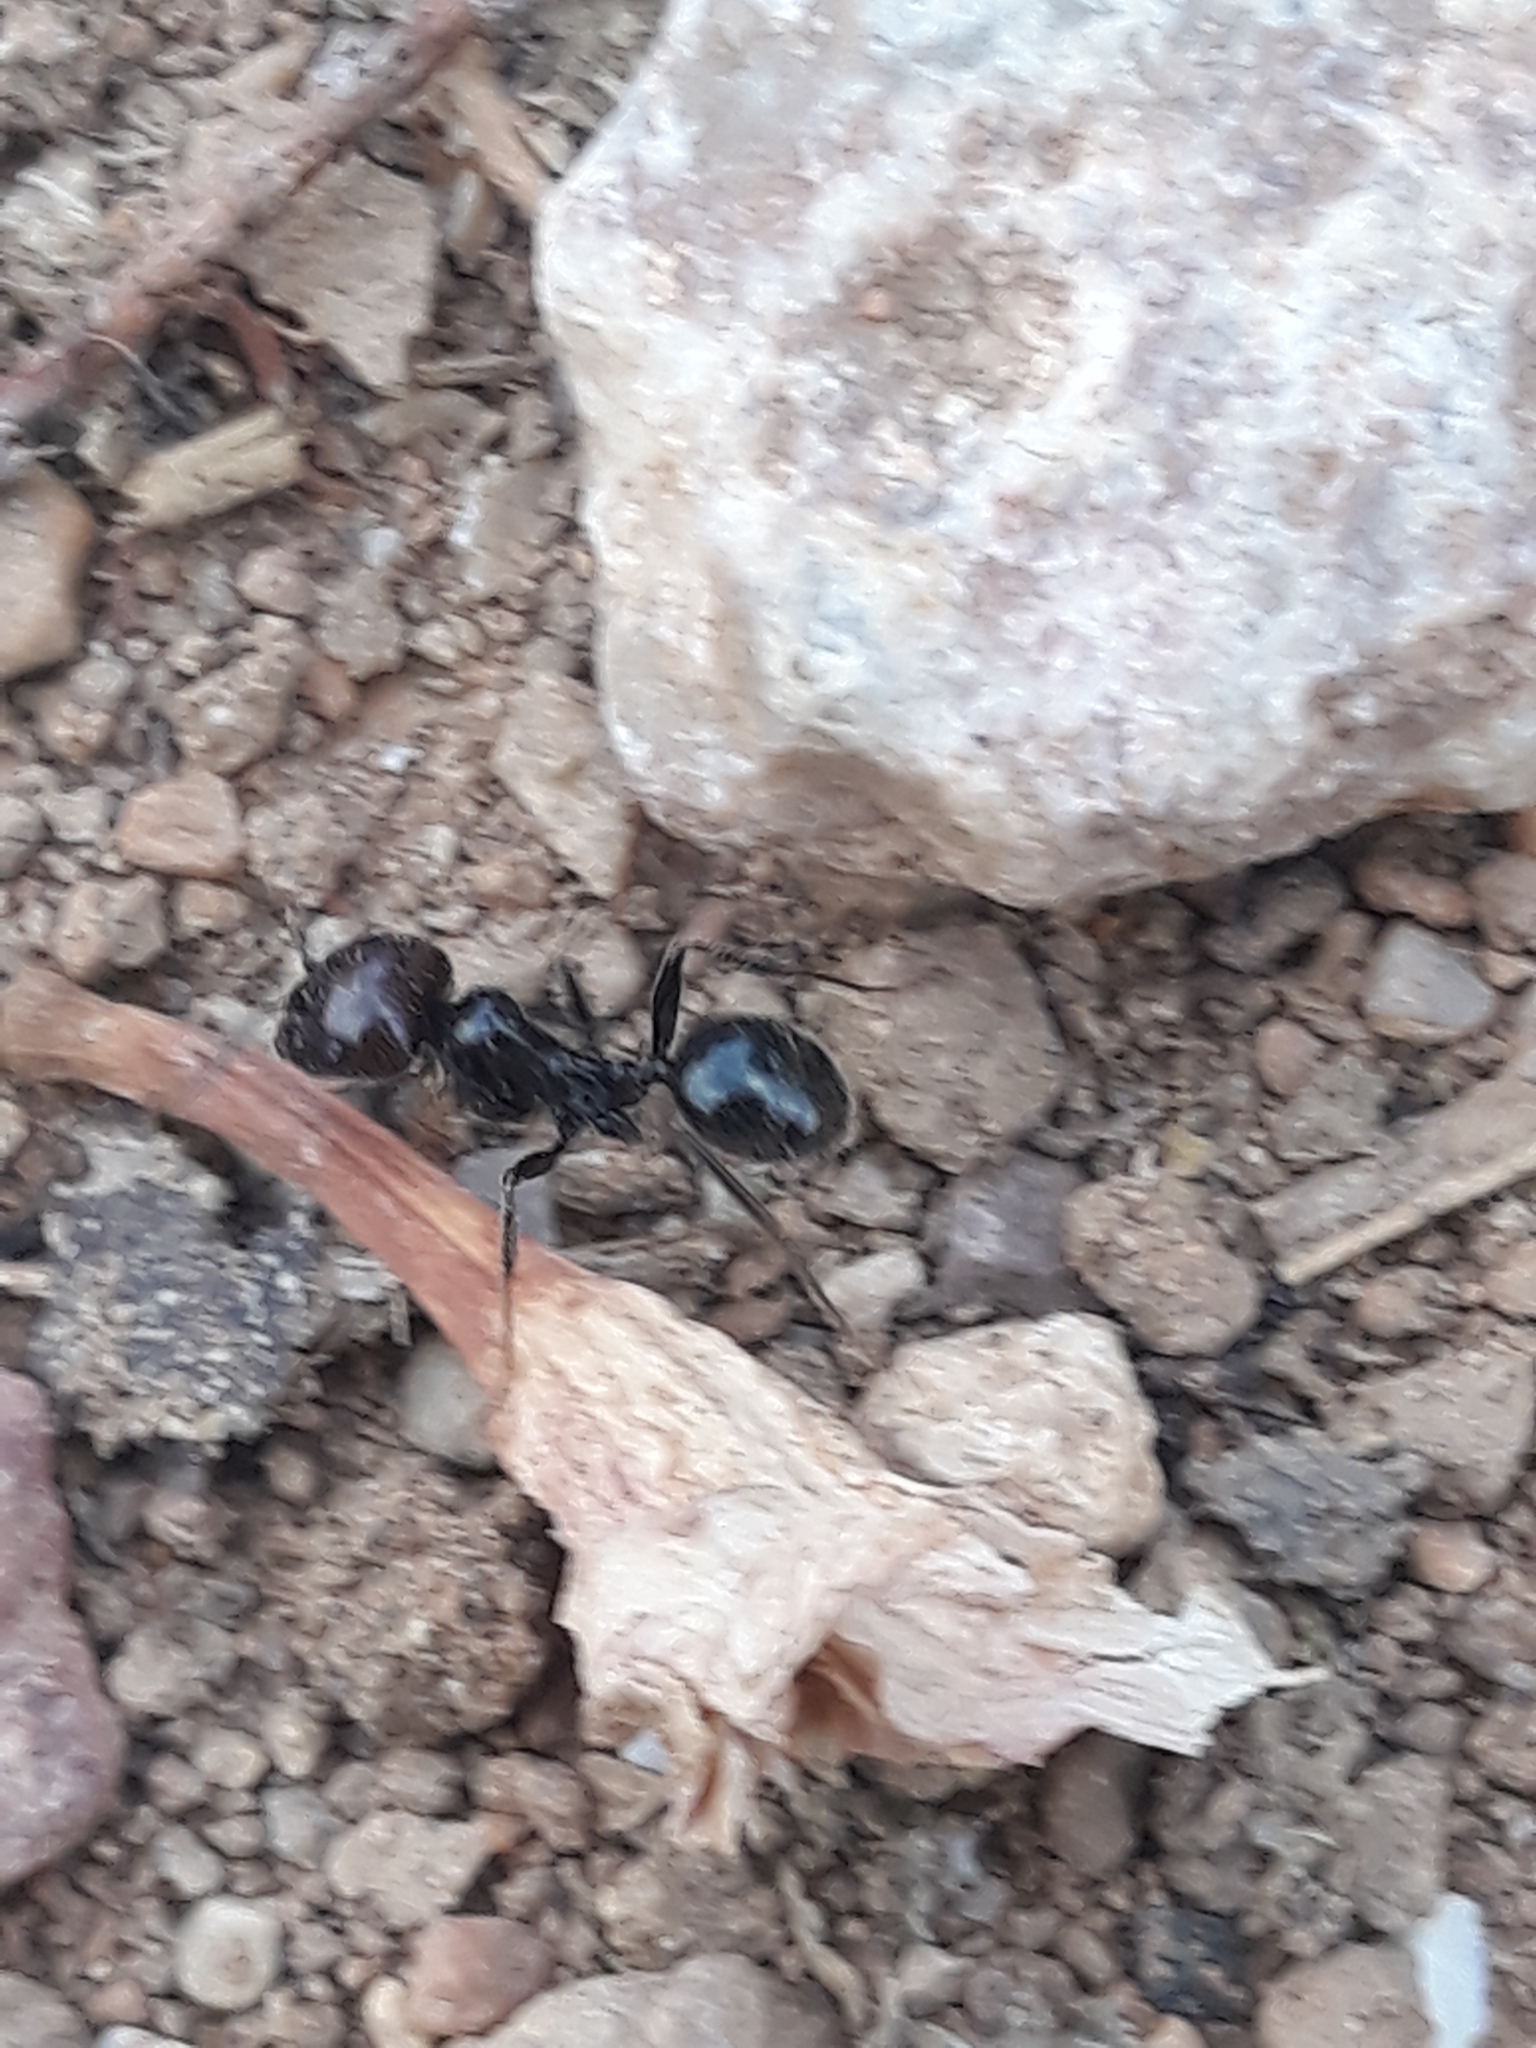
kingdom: Animalia
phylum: Arthropoda
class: Insecta
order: Hymenoptera
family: Formicidae
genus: Messor
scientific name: Messor barbarus
